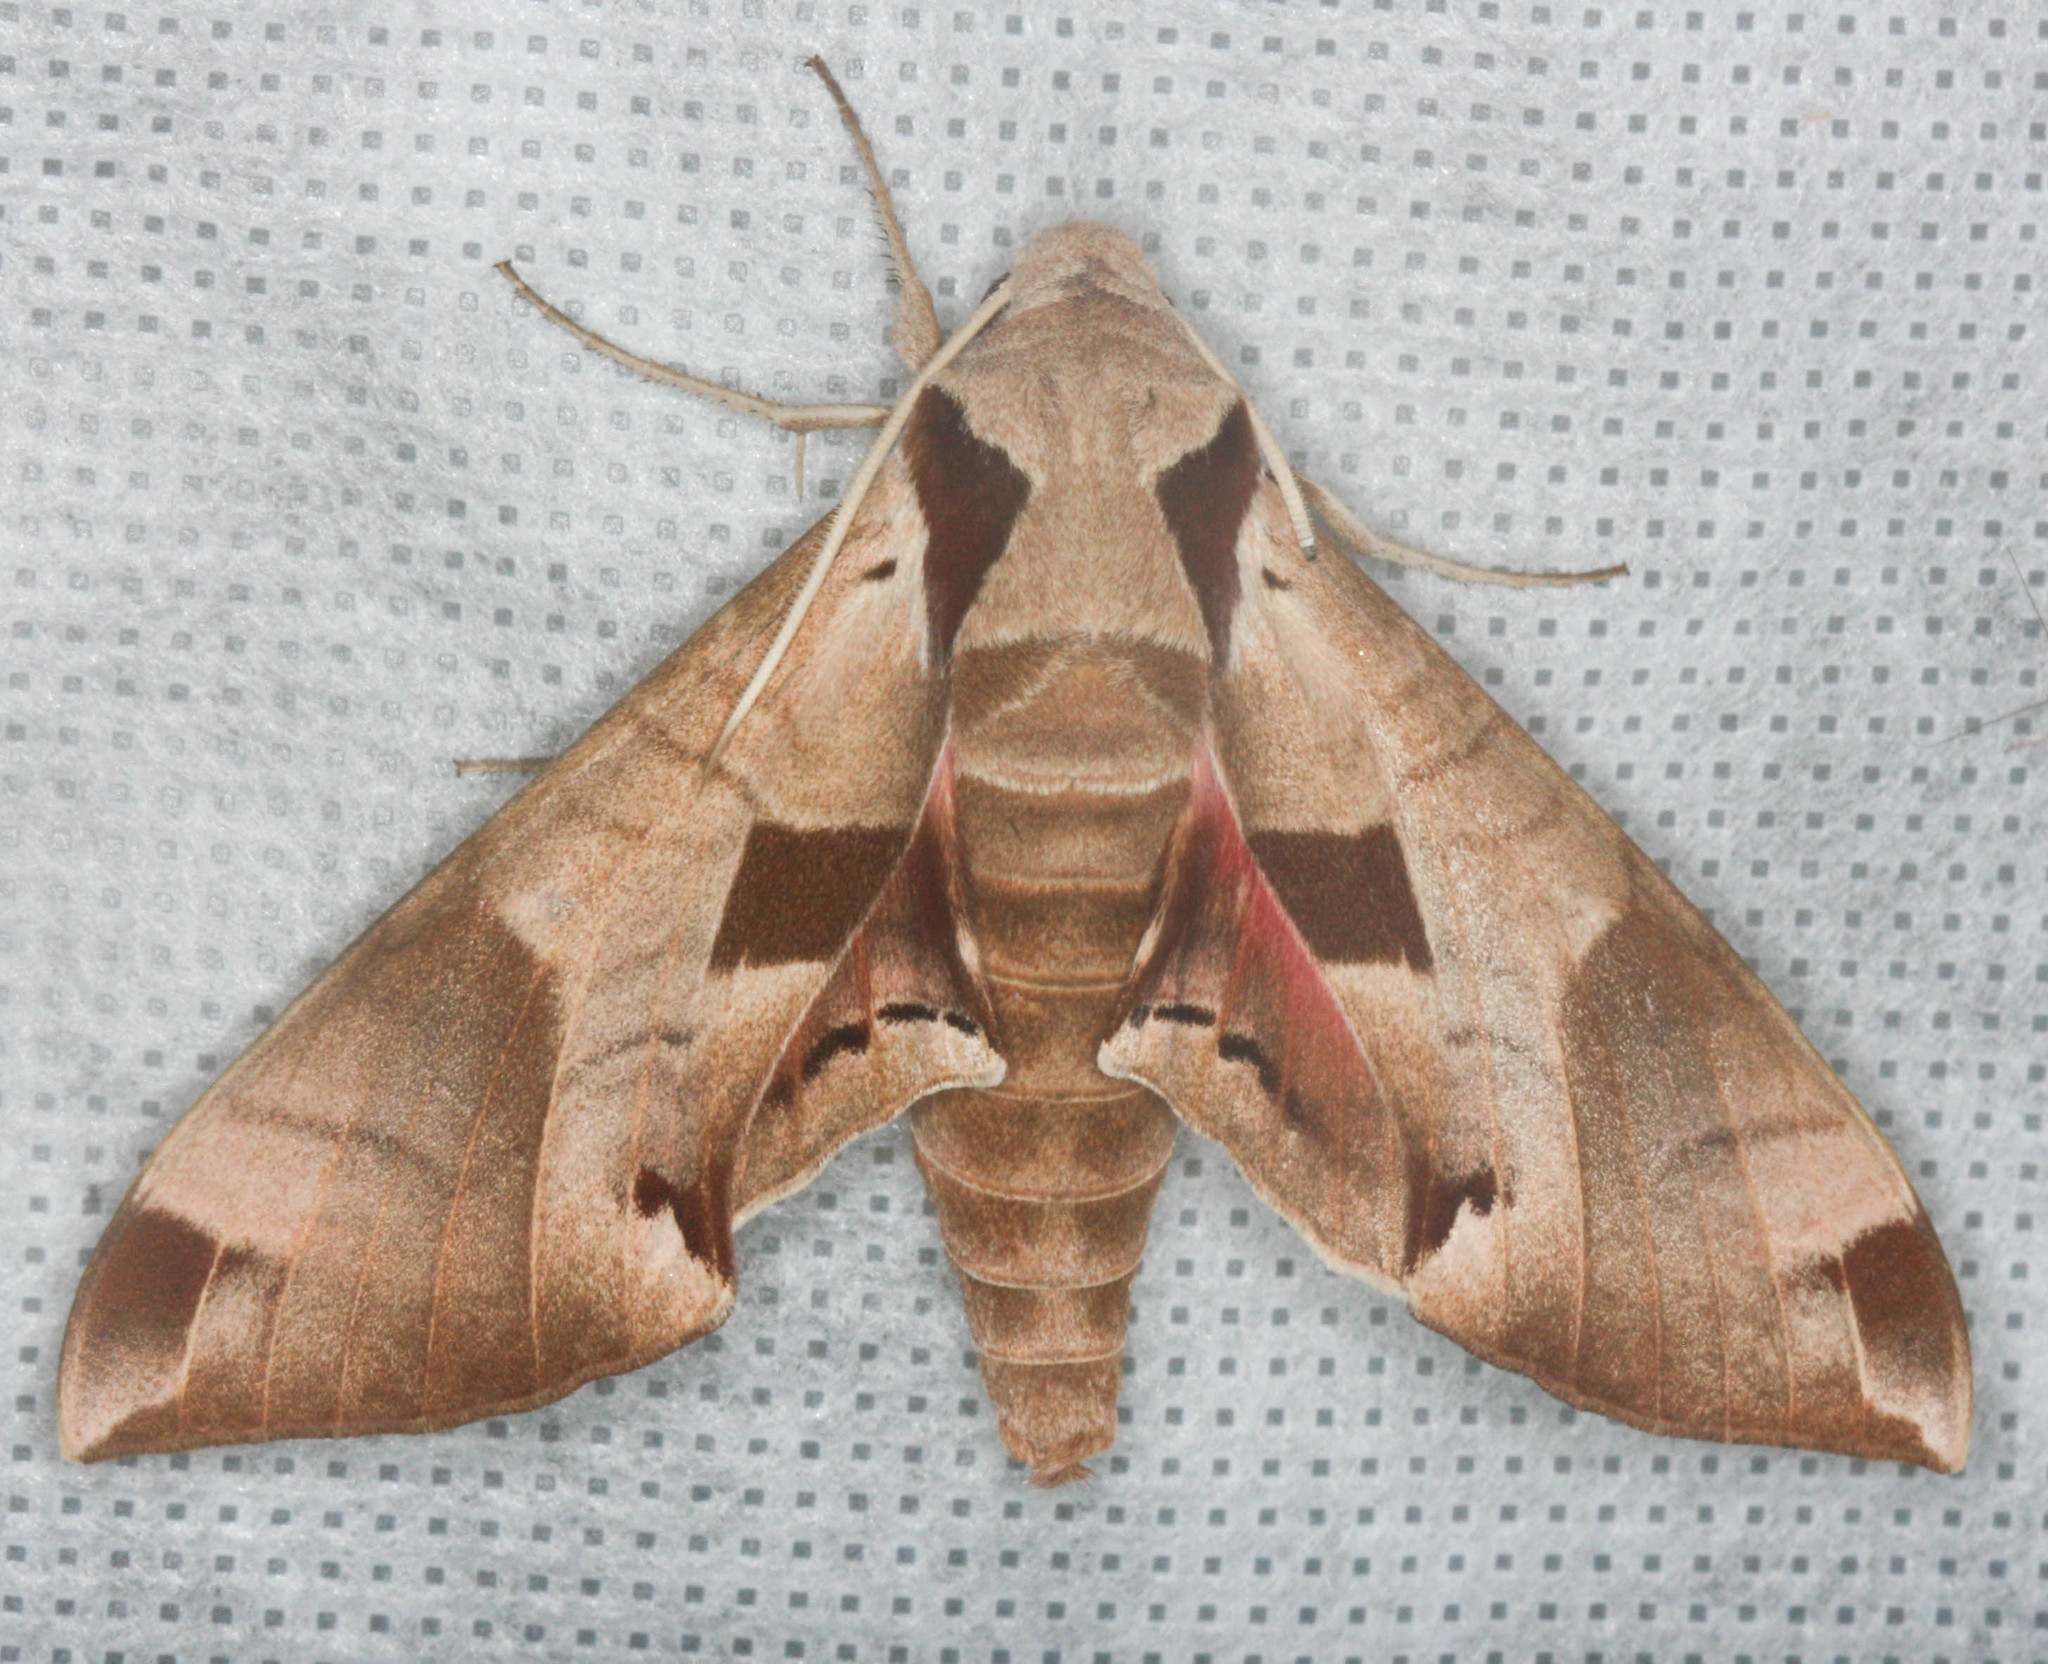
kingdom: Animalia
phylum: Arthropoda
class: Insecta
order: Lepidoptera
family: Sphingidae
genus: Eumorpha
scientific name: Eumorpha achemon
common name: Achemon sphinx
